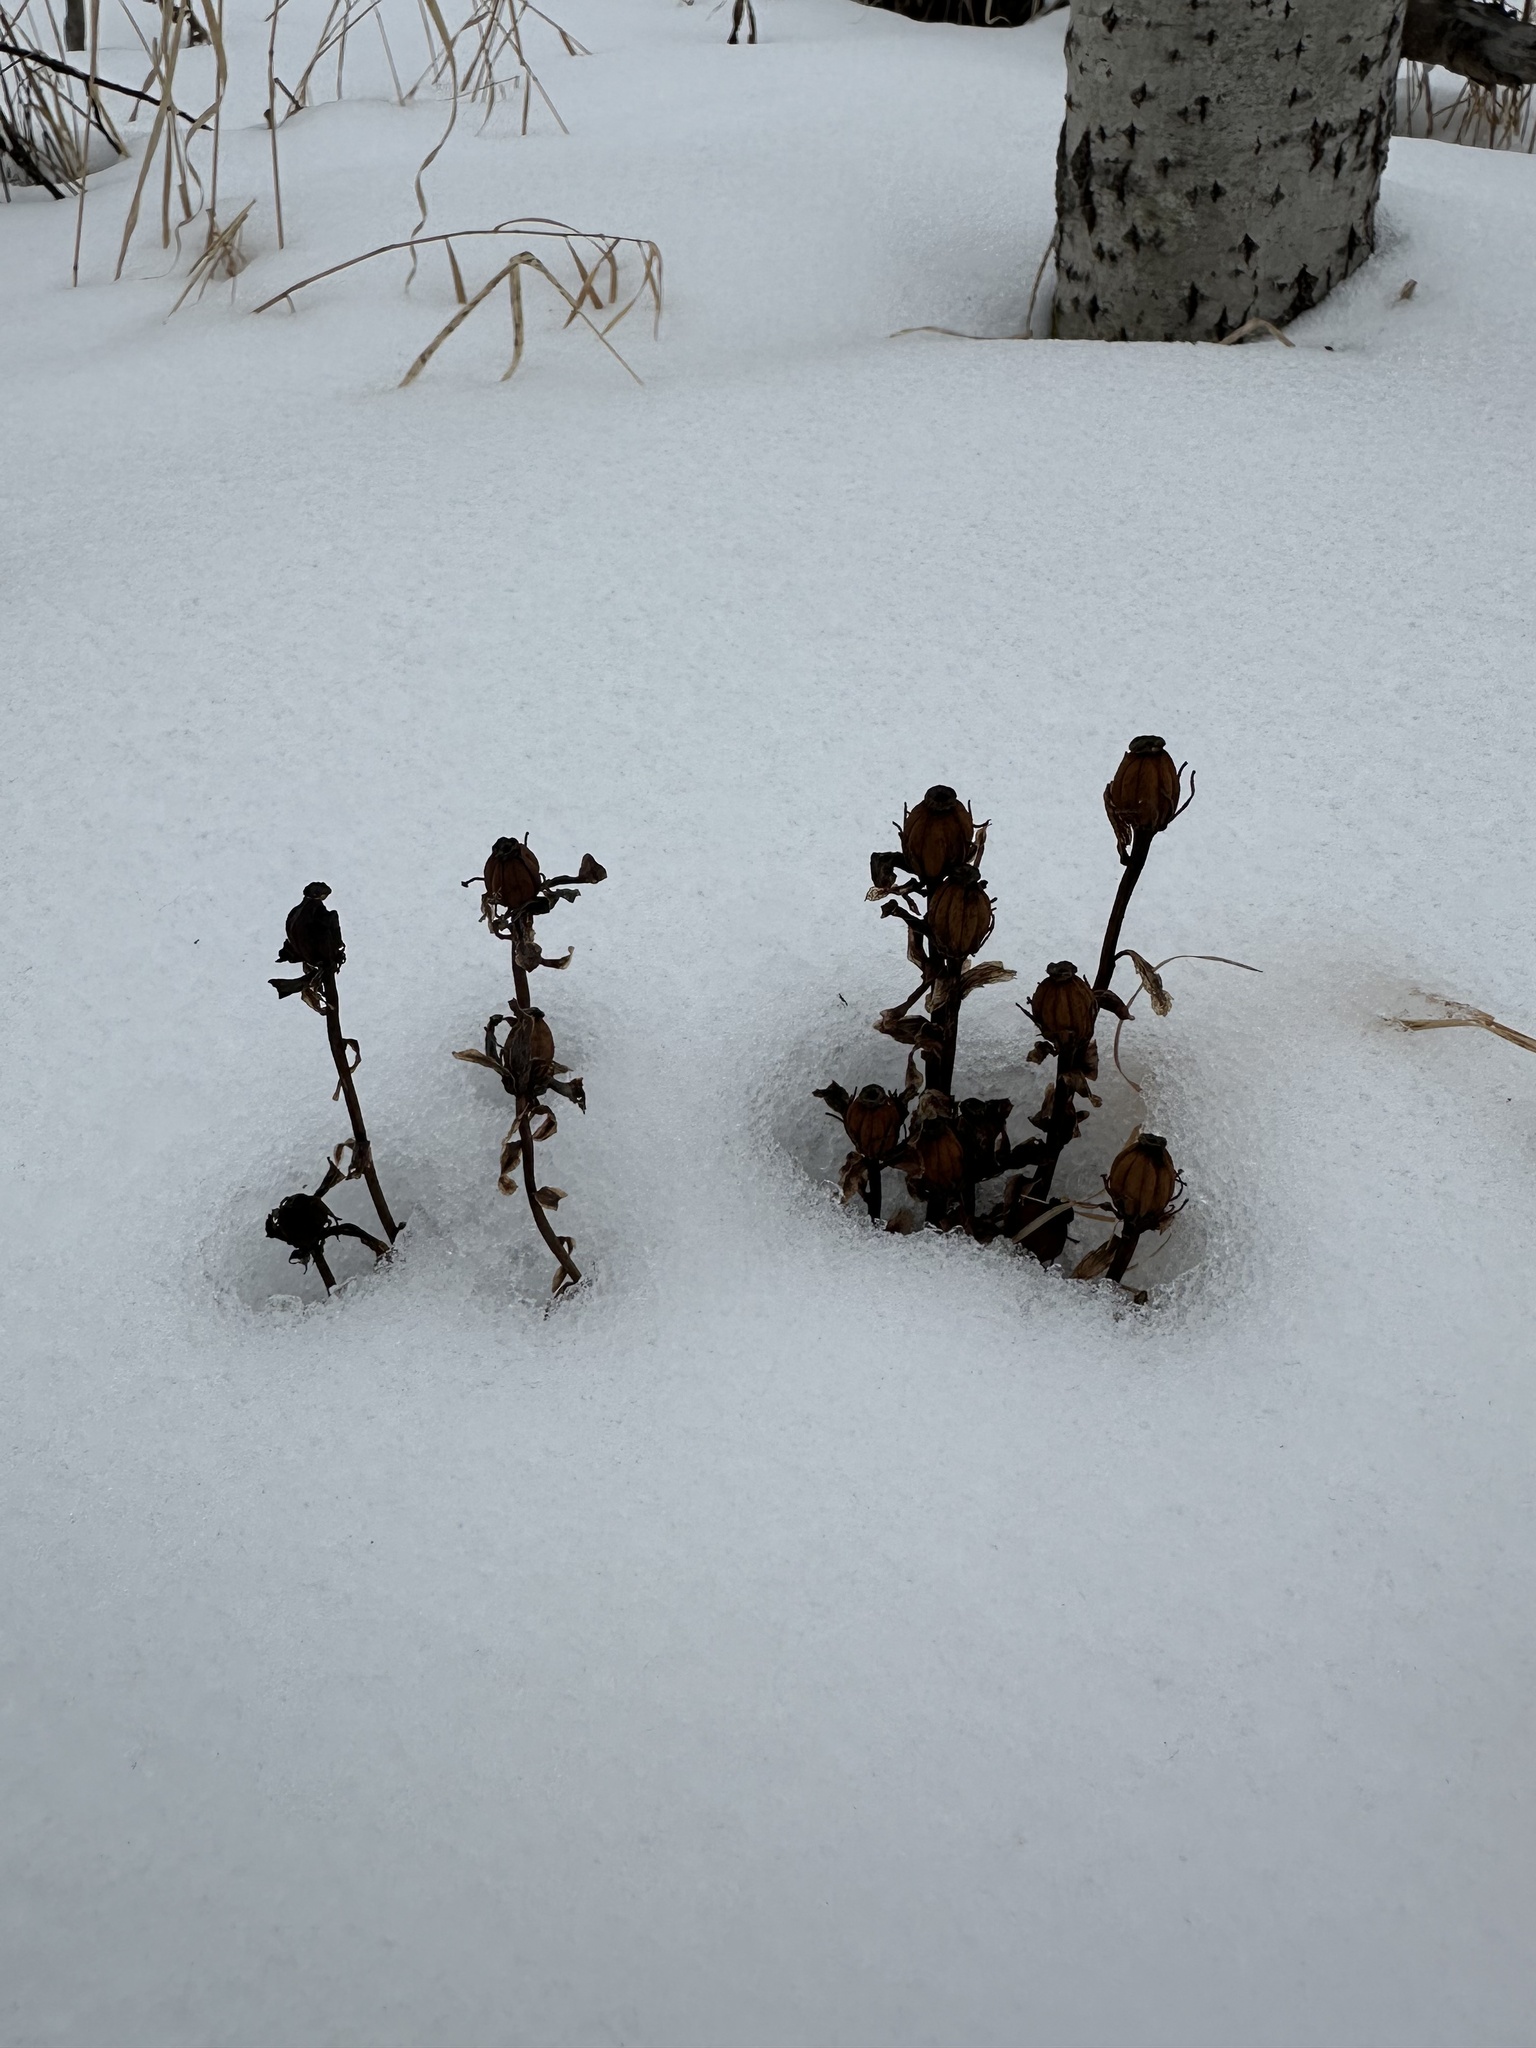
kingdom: Plantae
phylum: Tracheophyta
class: Magnoliopsida
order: Ericales
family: Ericaceae
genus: Monotropa
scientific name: Monotropa uniflora
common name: Convulsion root
